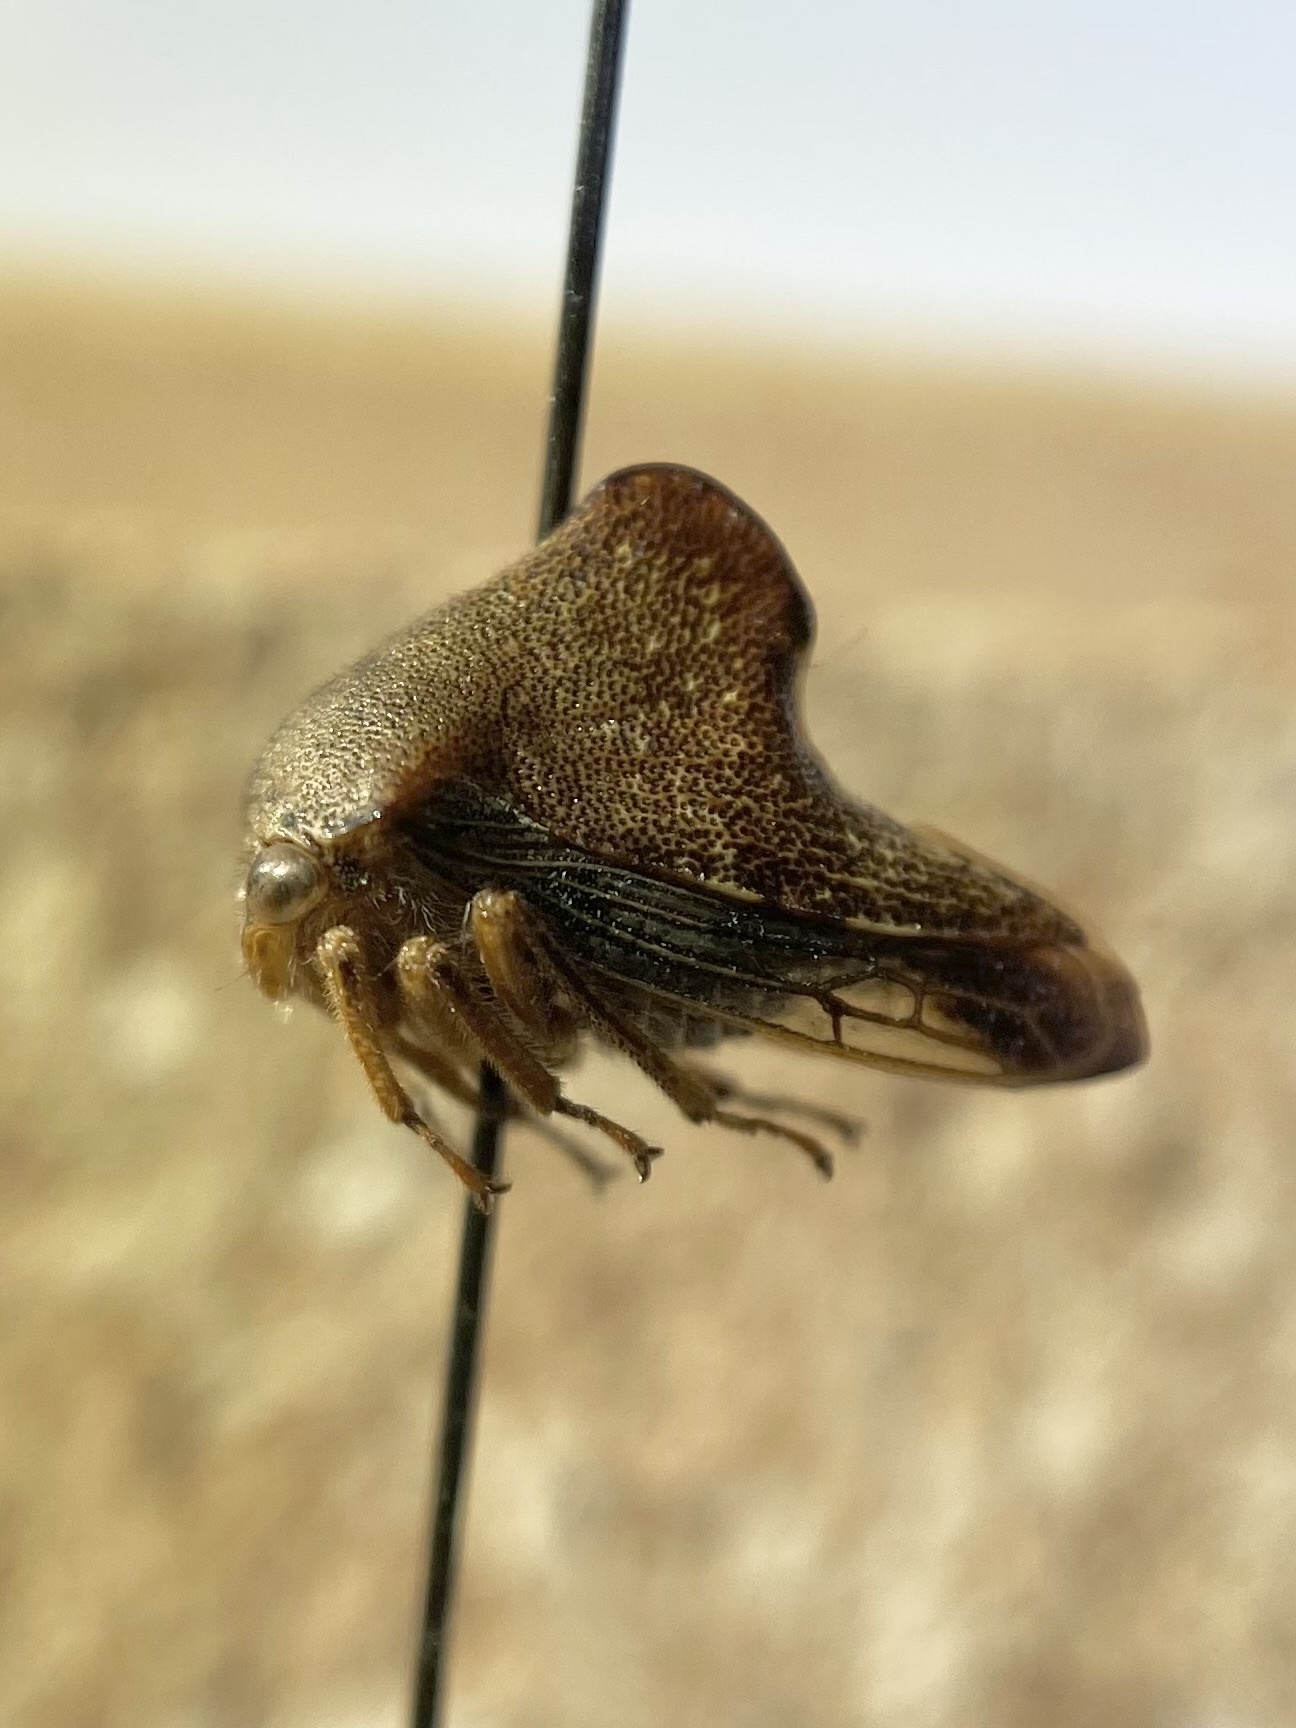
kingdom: Animalia
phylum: Arthropoda
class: Insecta
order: Hemiptera
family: Membracidae
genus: Telamona
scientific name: Telamona monticola
